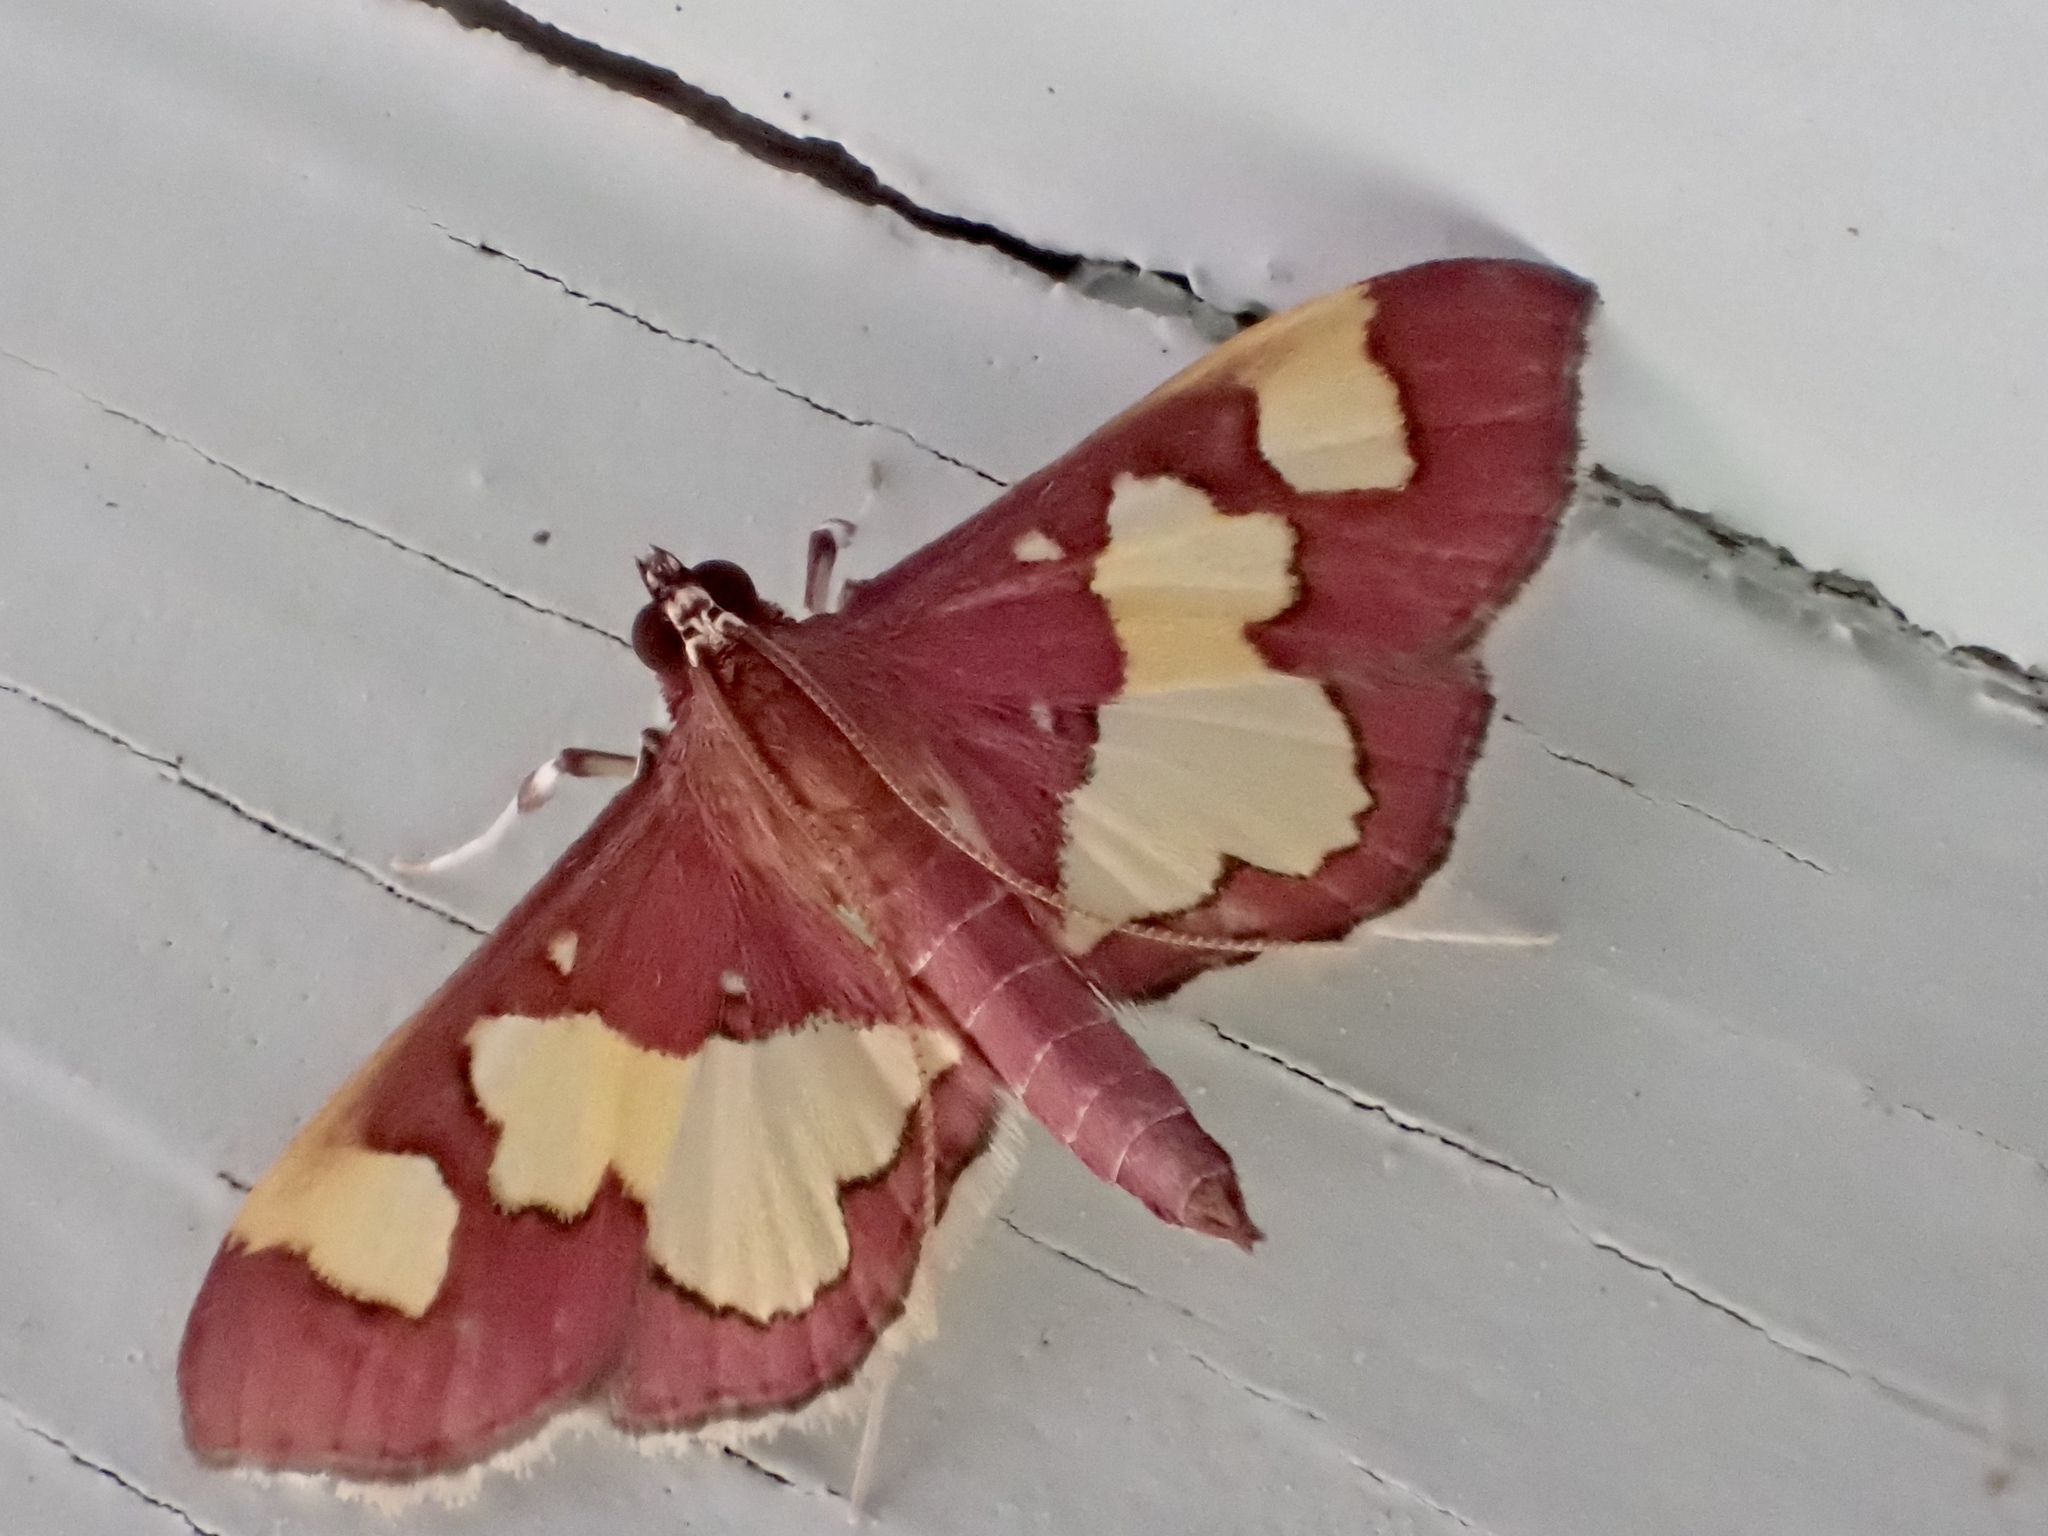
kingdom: Animalia
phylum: Arthropoda
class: Insecta
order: Lepidoptera
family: Crambidae
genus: Colomychus
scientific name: Colomychus talis
